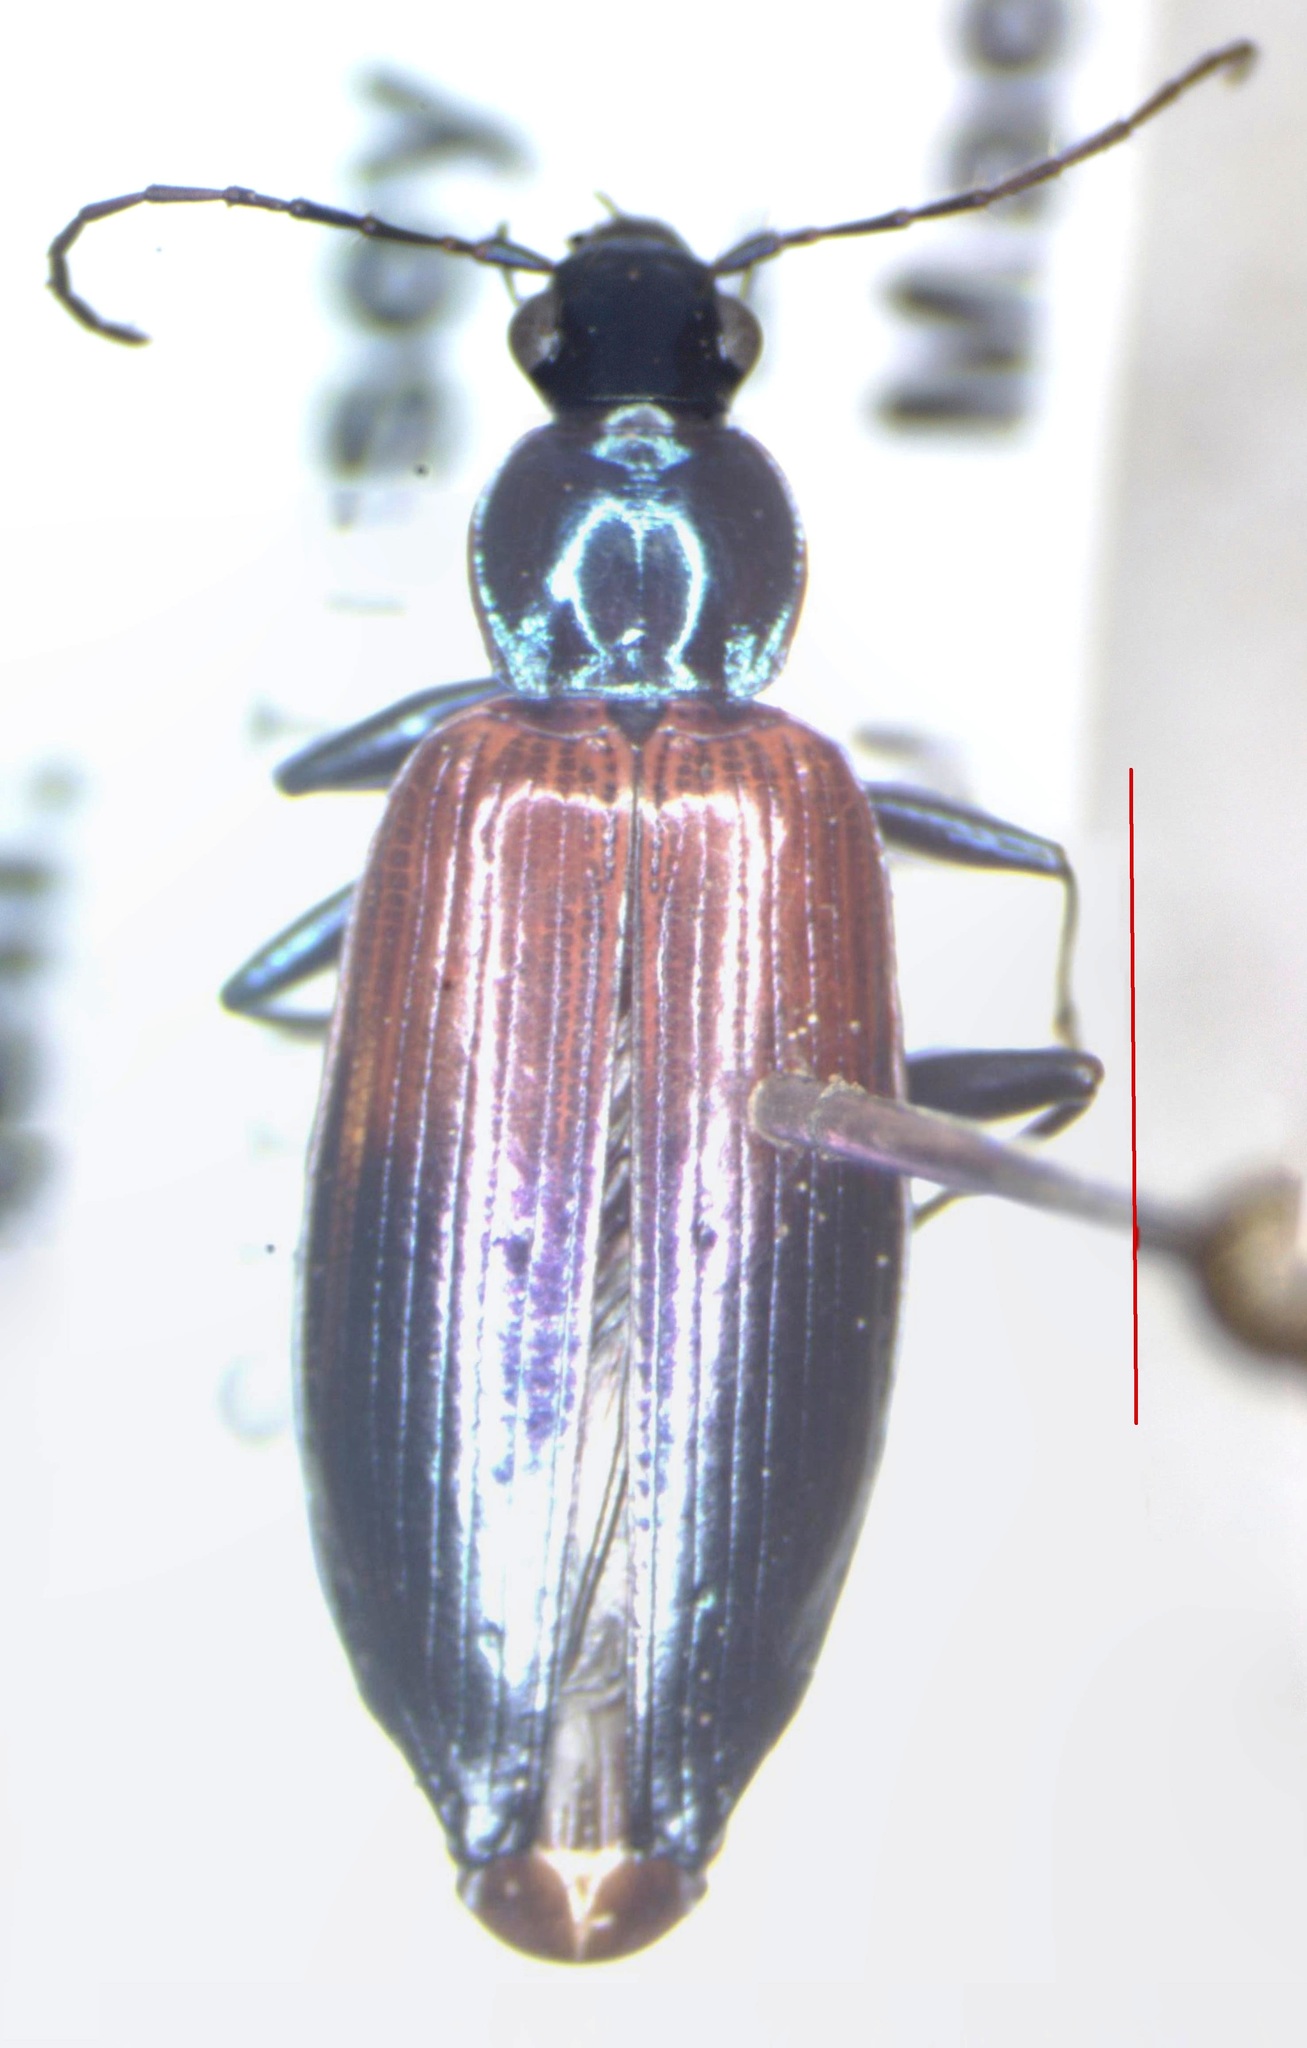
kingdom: Animalia
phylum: Arthropoda
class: Insecta
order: Coleoptera
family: Carabidae
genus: Onypterygia
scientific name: Onypterygia tricolor
